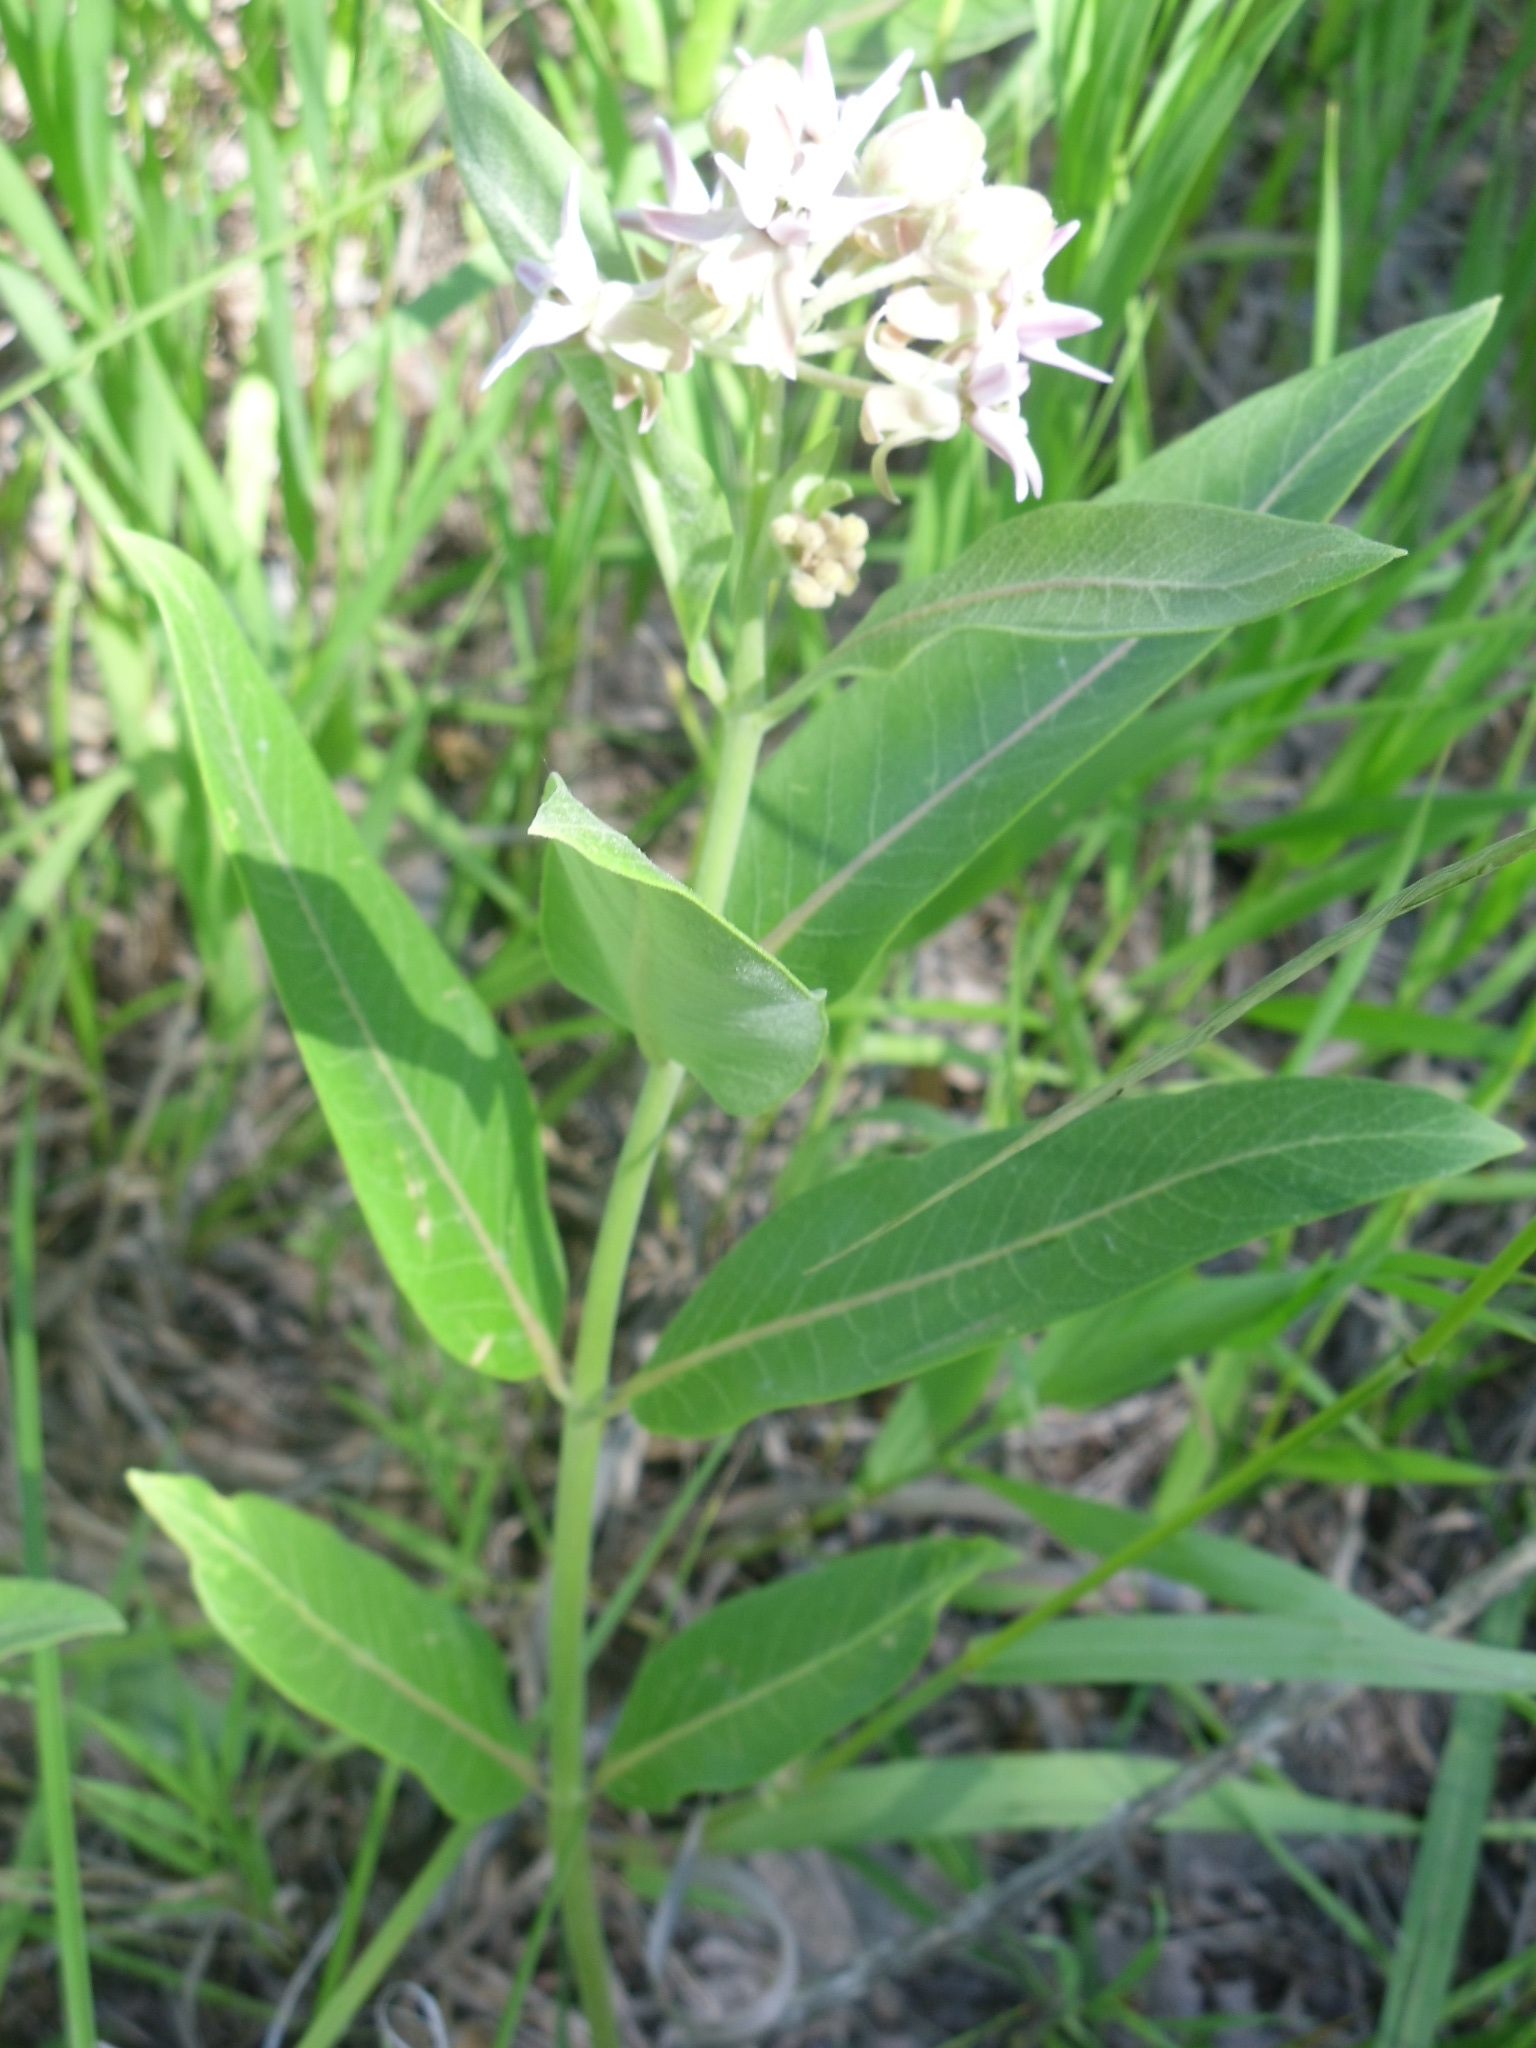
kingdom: Plantae
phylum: Tracheophyta
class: Magnoliopsida
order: Gentianales
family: Apocynaceae
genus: Asclepias
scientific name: Asclepias speciosa
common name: Showy milkweed
